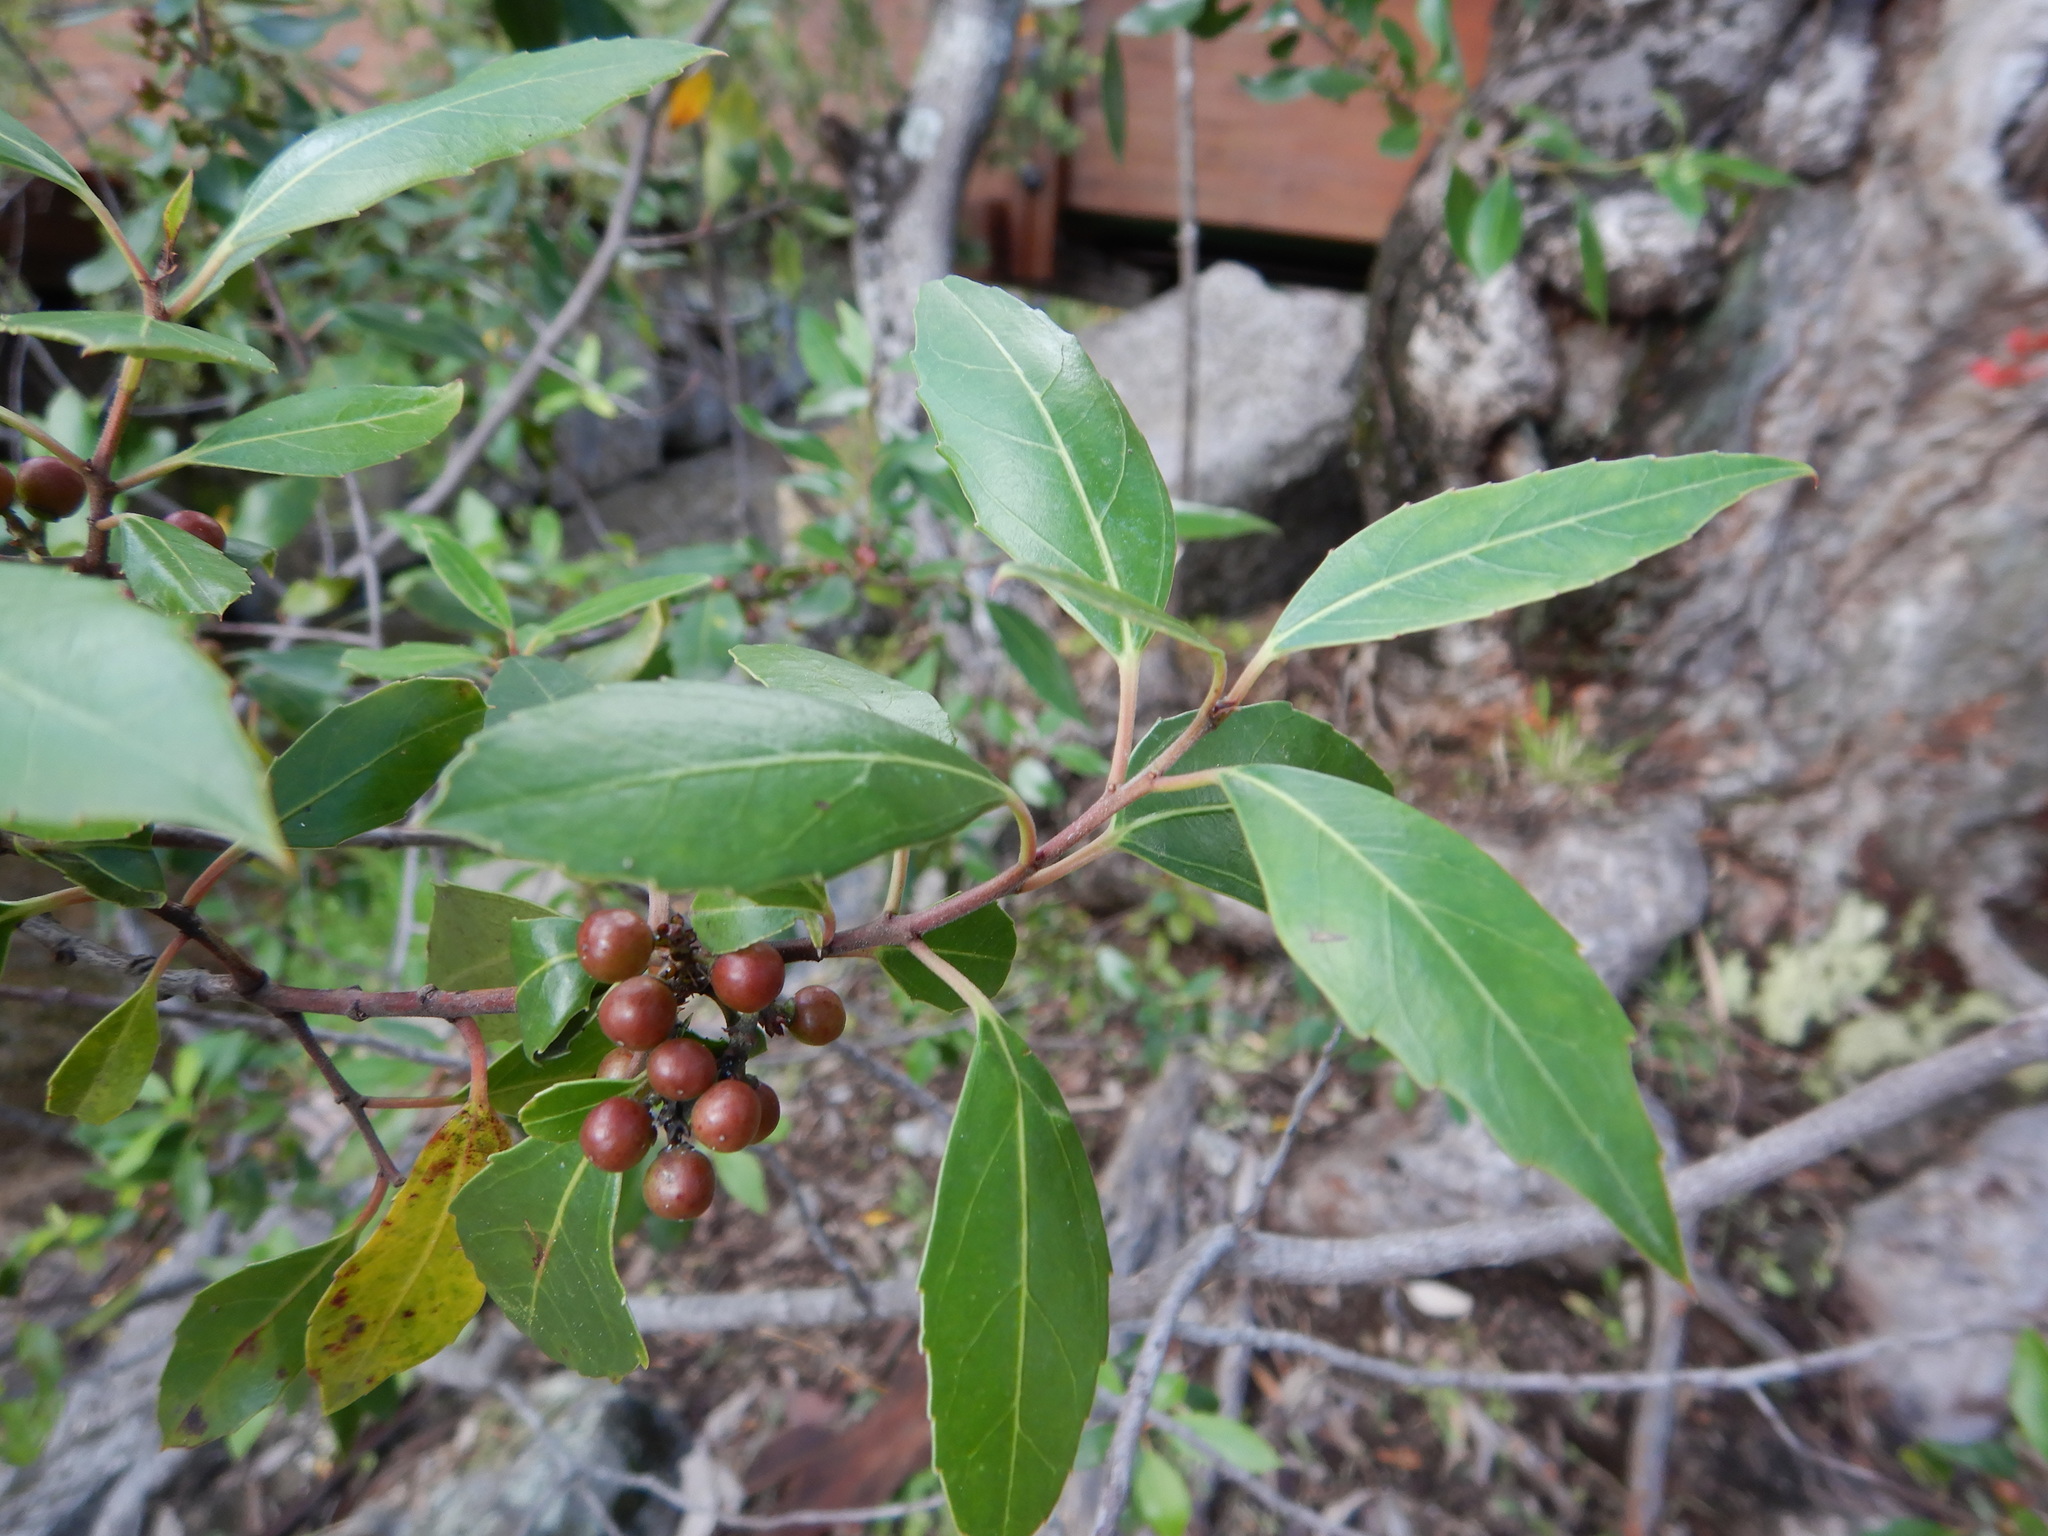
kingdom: Plantae
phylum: Tracheophyta
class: Magnoliopsida
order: Rosales
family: Rhamnaceae
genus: Rhamnus
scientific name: Rhamnus alaternus
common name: Mediterranean buckthorn
